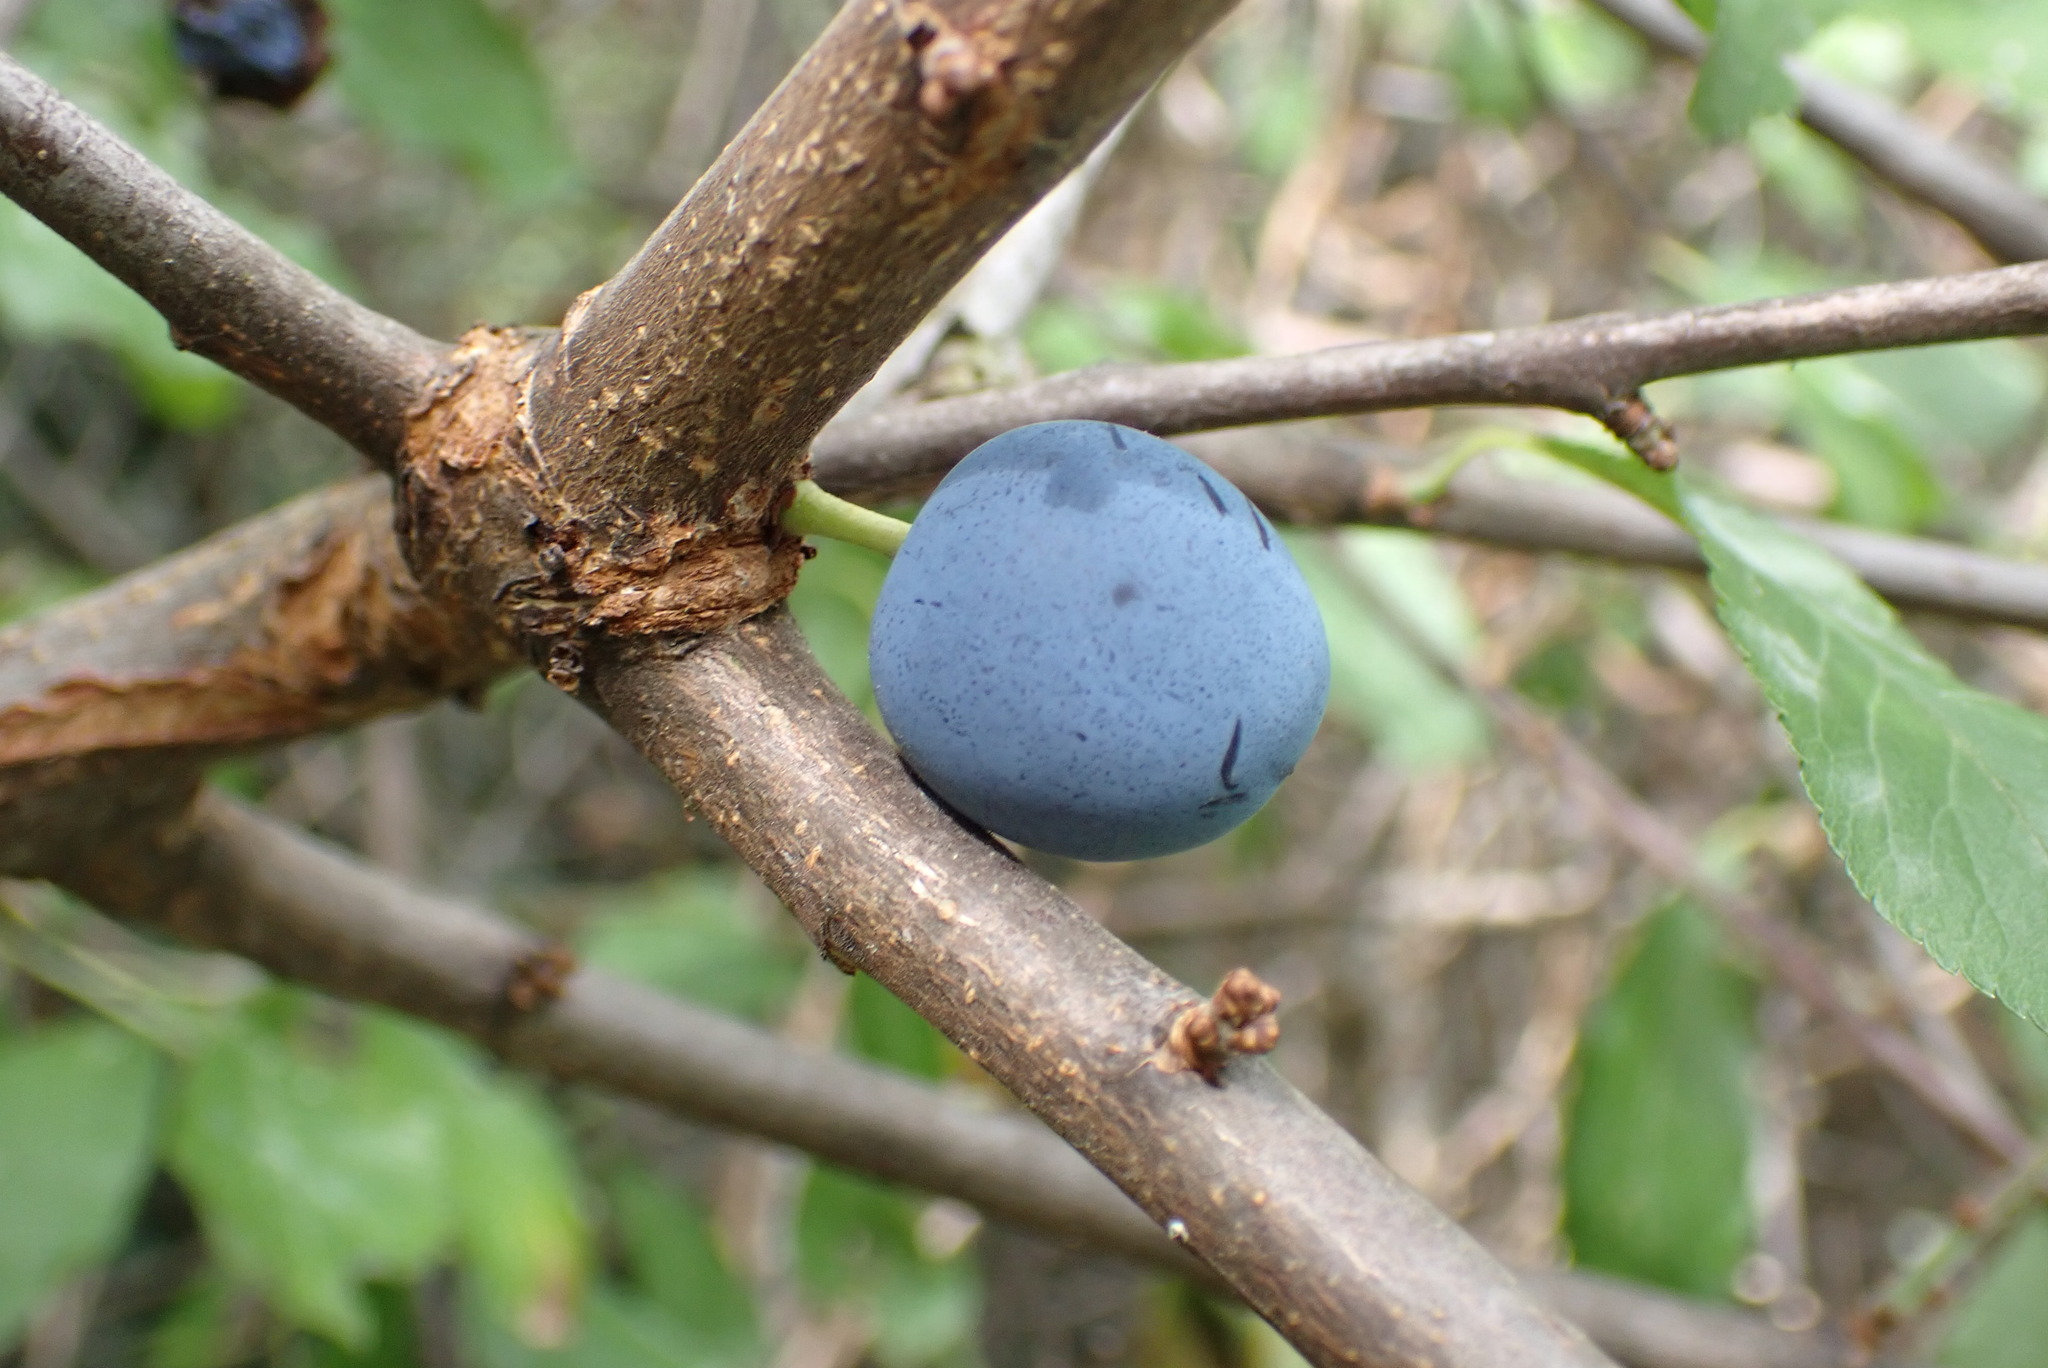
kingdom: Plantae
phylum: Tracheophyta
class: Magnoliopsida
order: Rosales
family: Rosaceae
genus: Prunus
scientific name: Prunus spinosa
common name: Blackthorn
